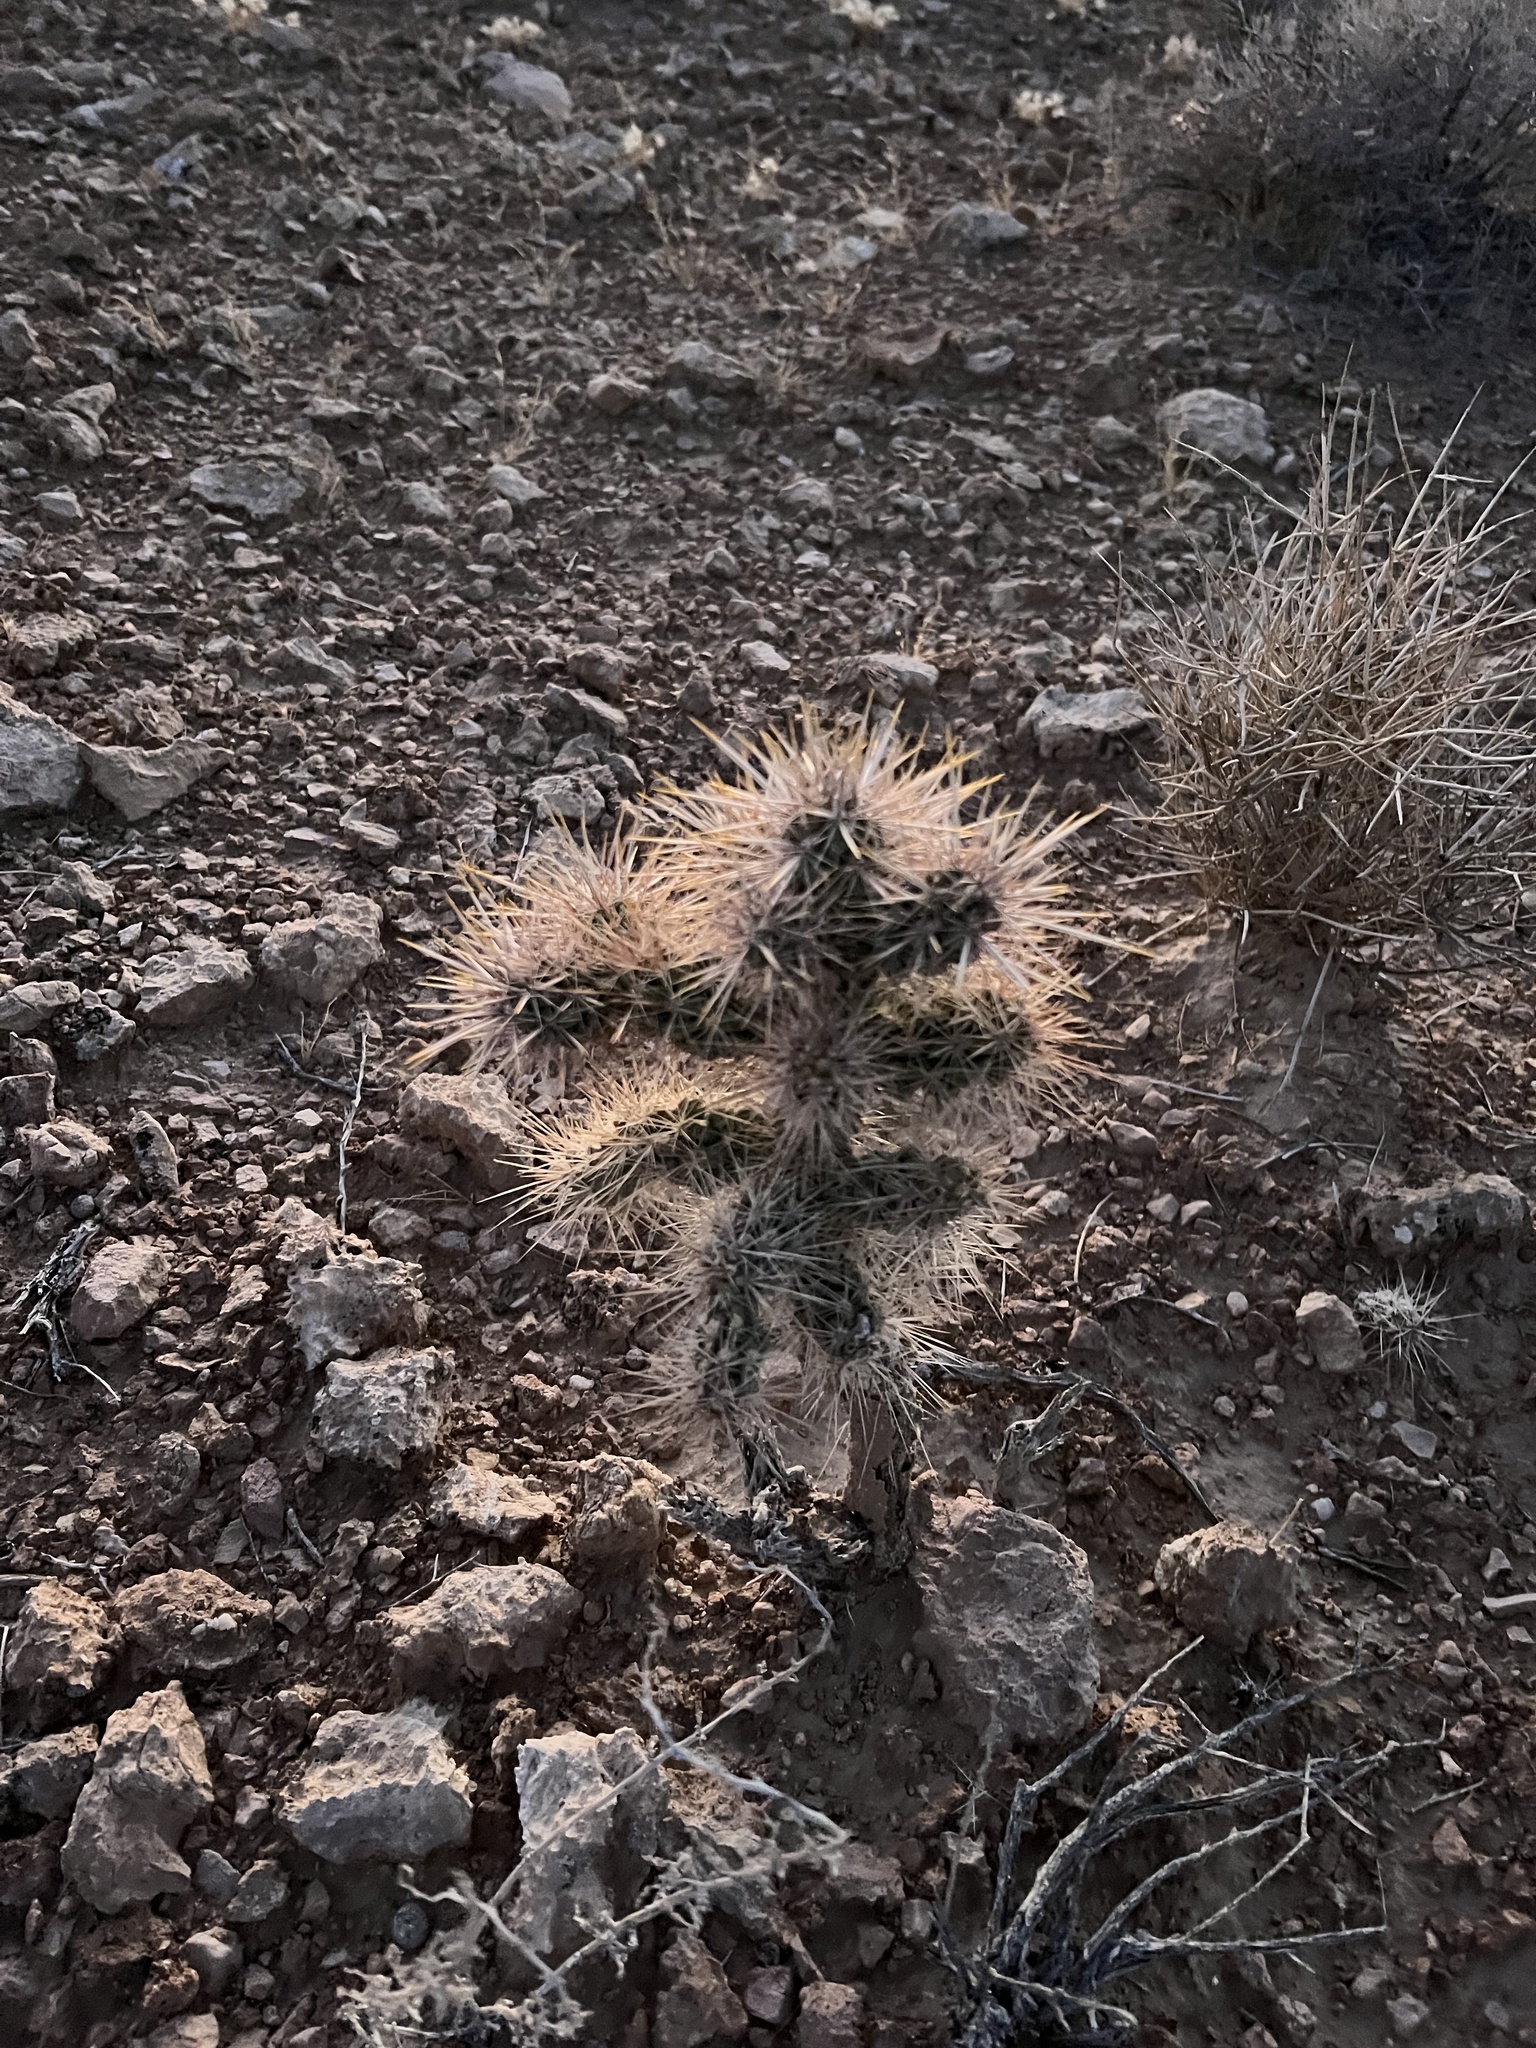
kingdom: Plantae
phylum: Tracheophyta
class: Magnoliopsida
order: Caryophyllales
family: Cactaceae
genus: Cylindropuntia
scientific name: Cylindropuntia echinocarpa
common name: Ground cholla
